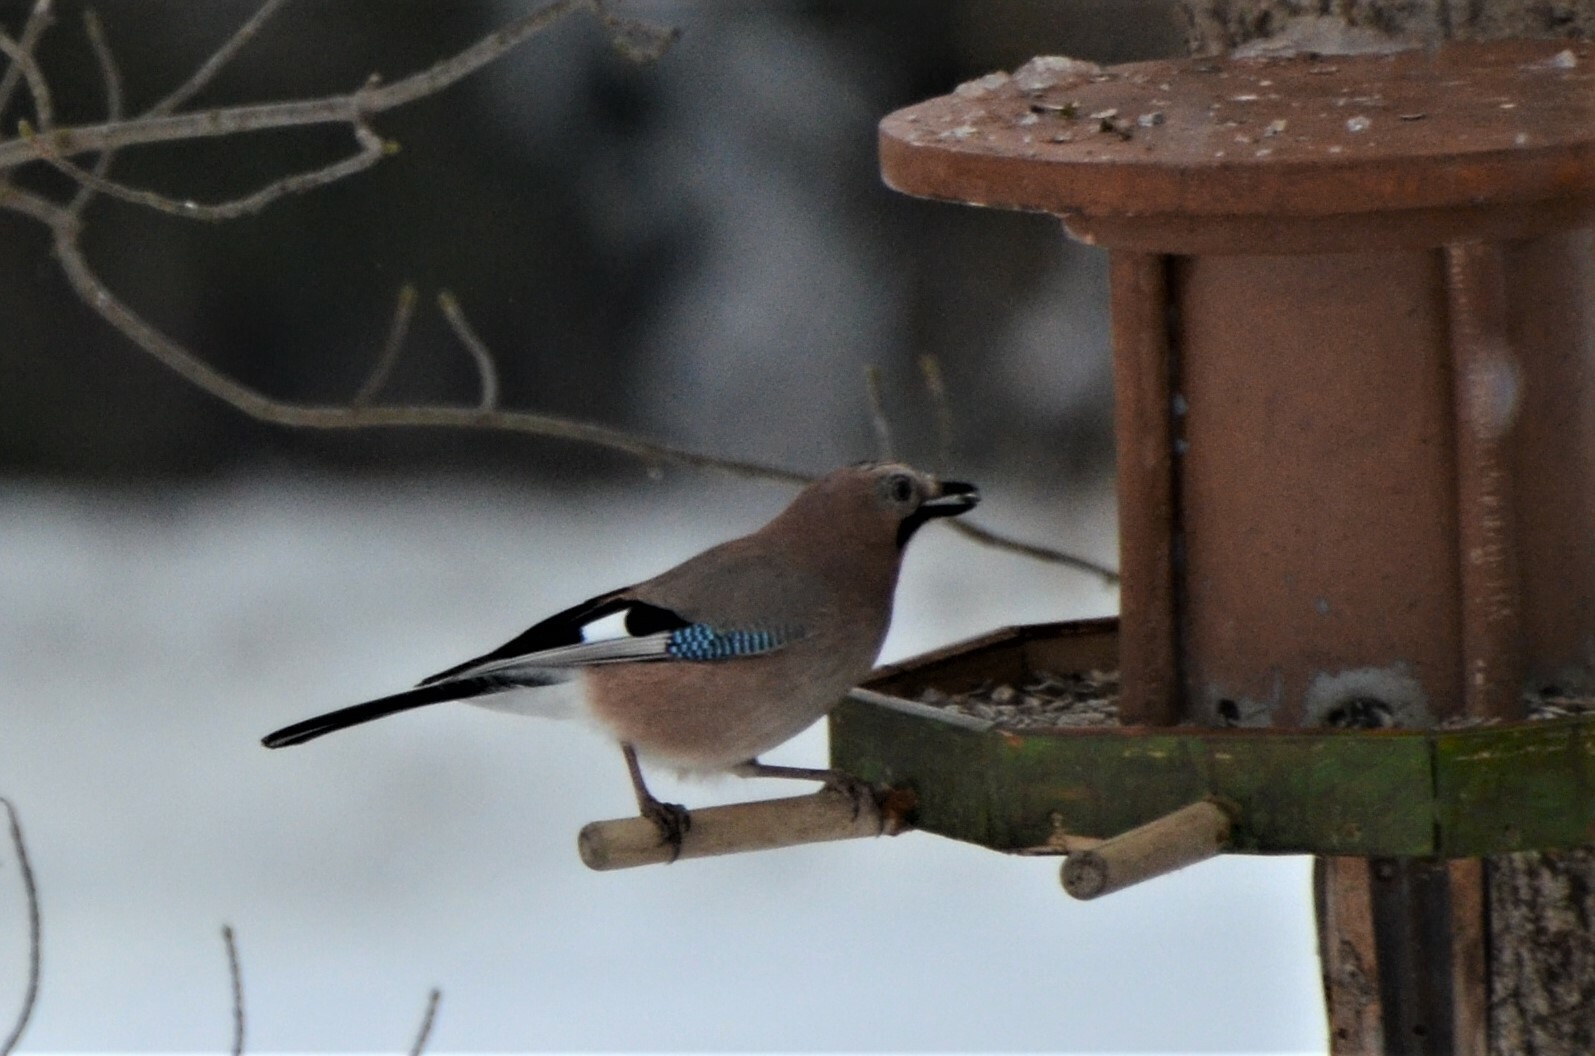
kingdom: Animalia
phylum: Chordata
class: Aves
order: Passeriformes
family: Corvidae
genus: Garrulus
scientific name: Garrulus glandarius
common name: Eurasian jay
